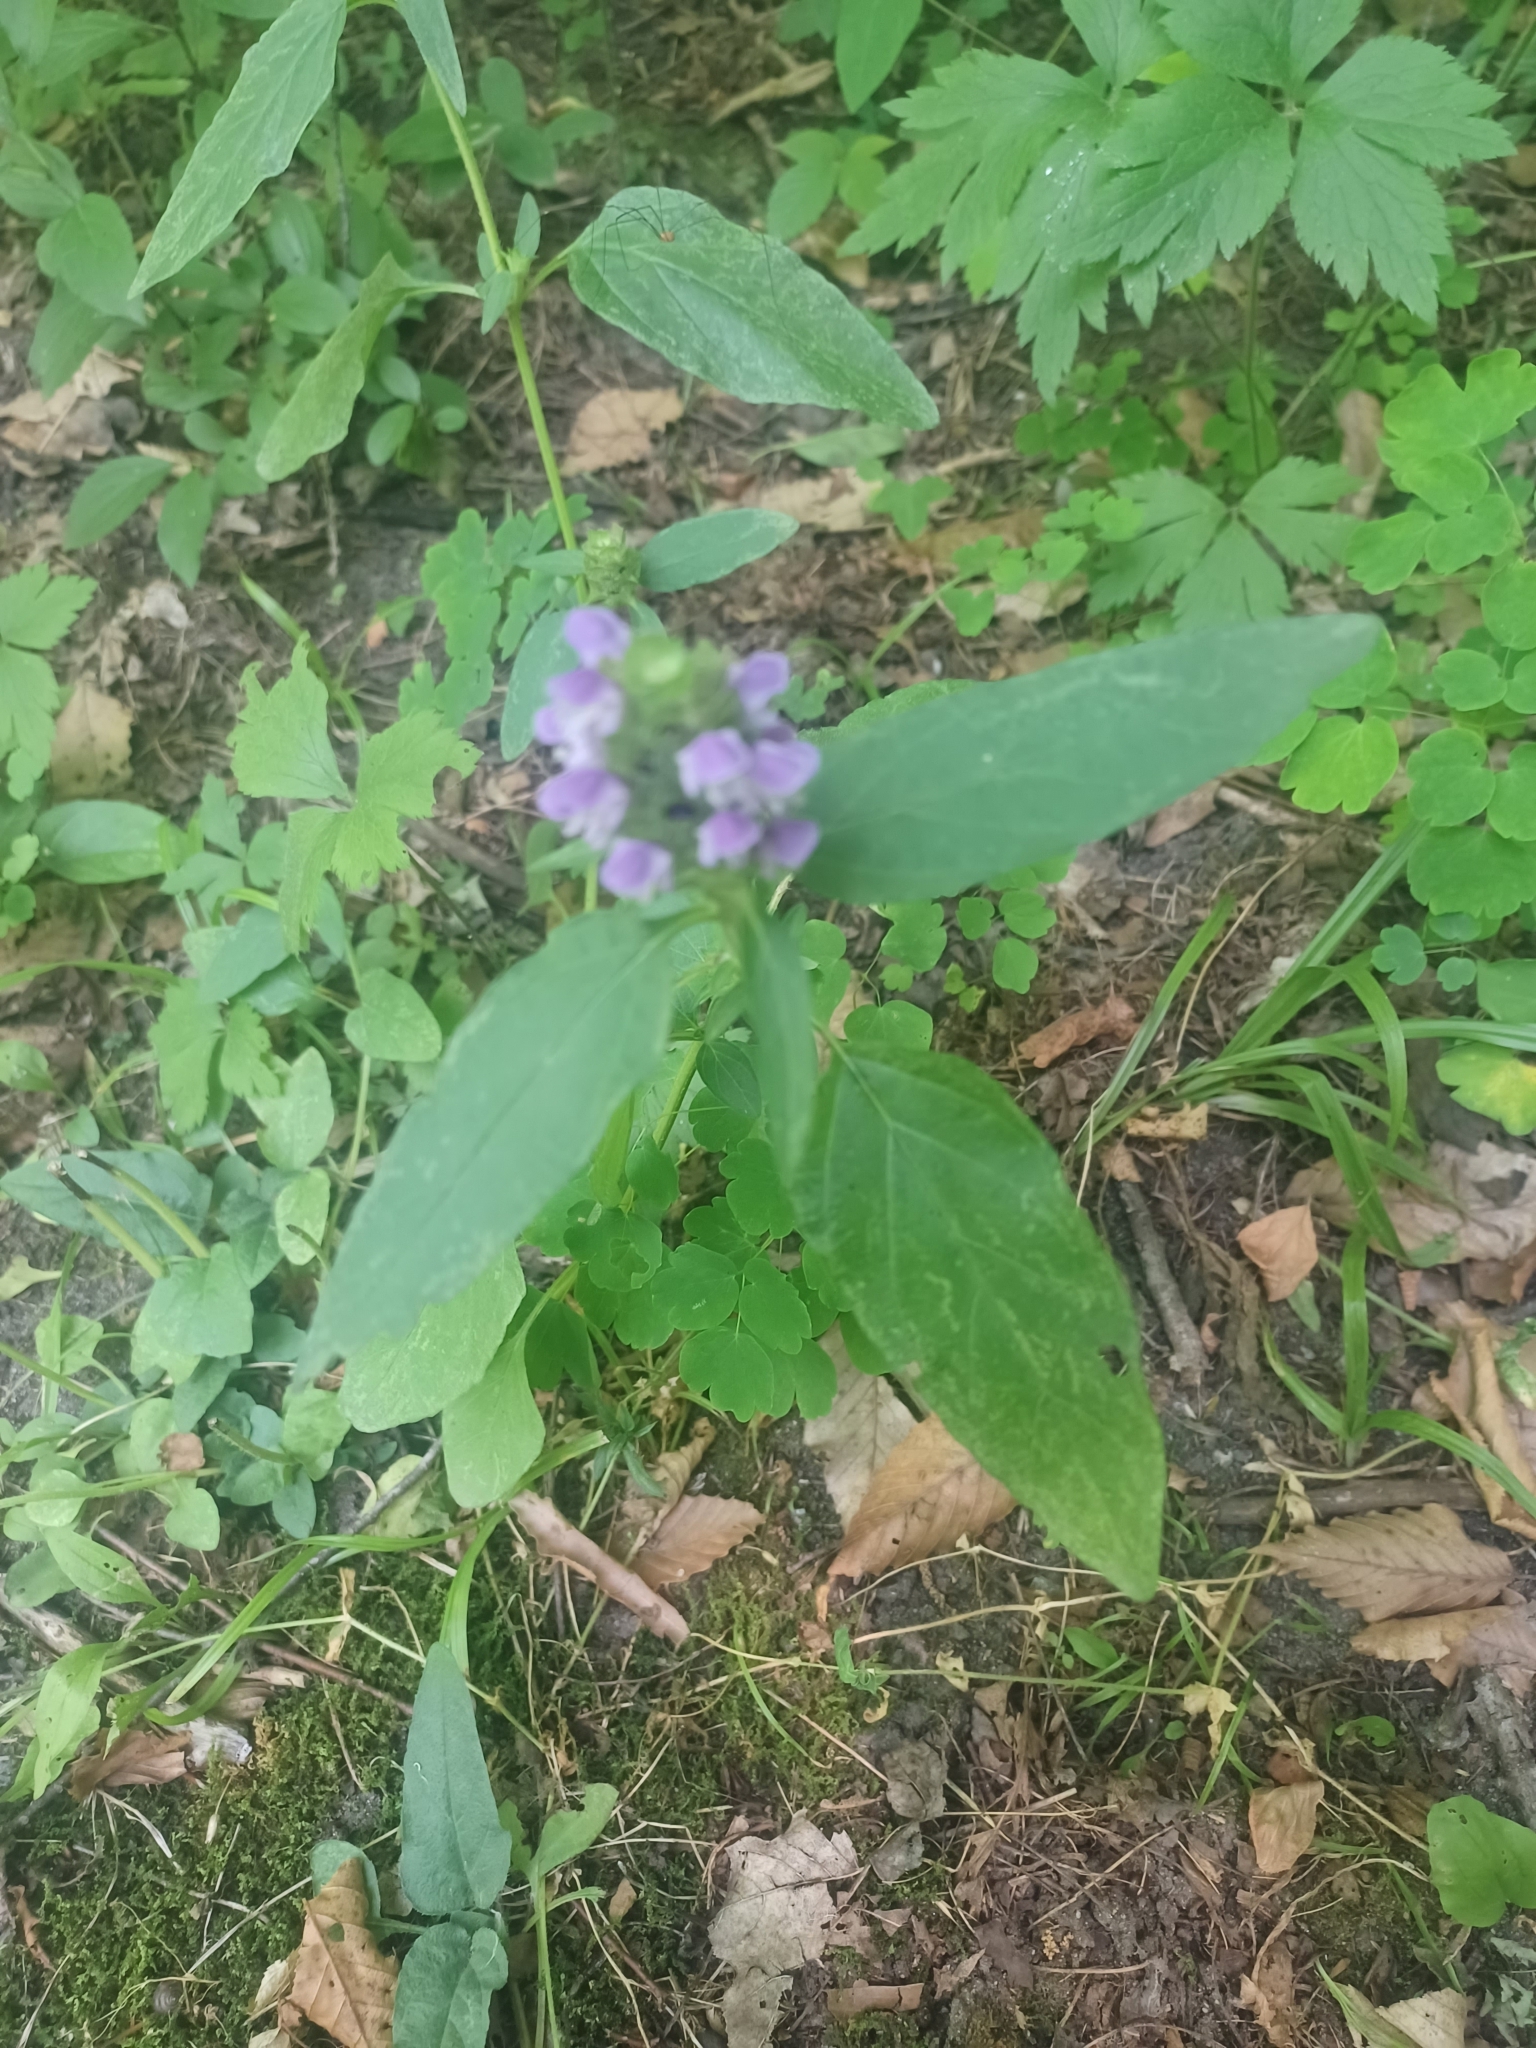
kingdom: Plantae
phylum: Tracheophyta
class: Magnoliopsida
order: Lamiales
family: Lamiaceae
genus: Prunella
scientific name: Prunella vulgaris
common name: Heal-all
